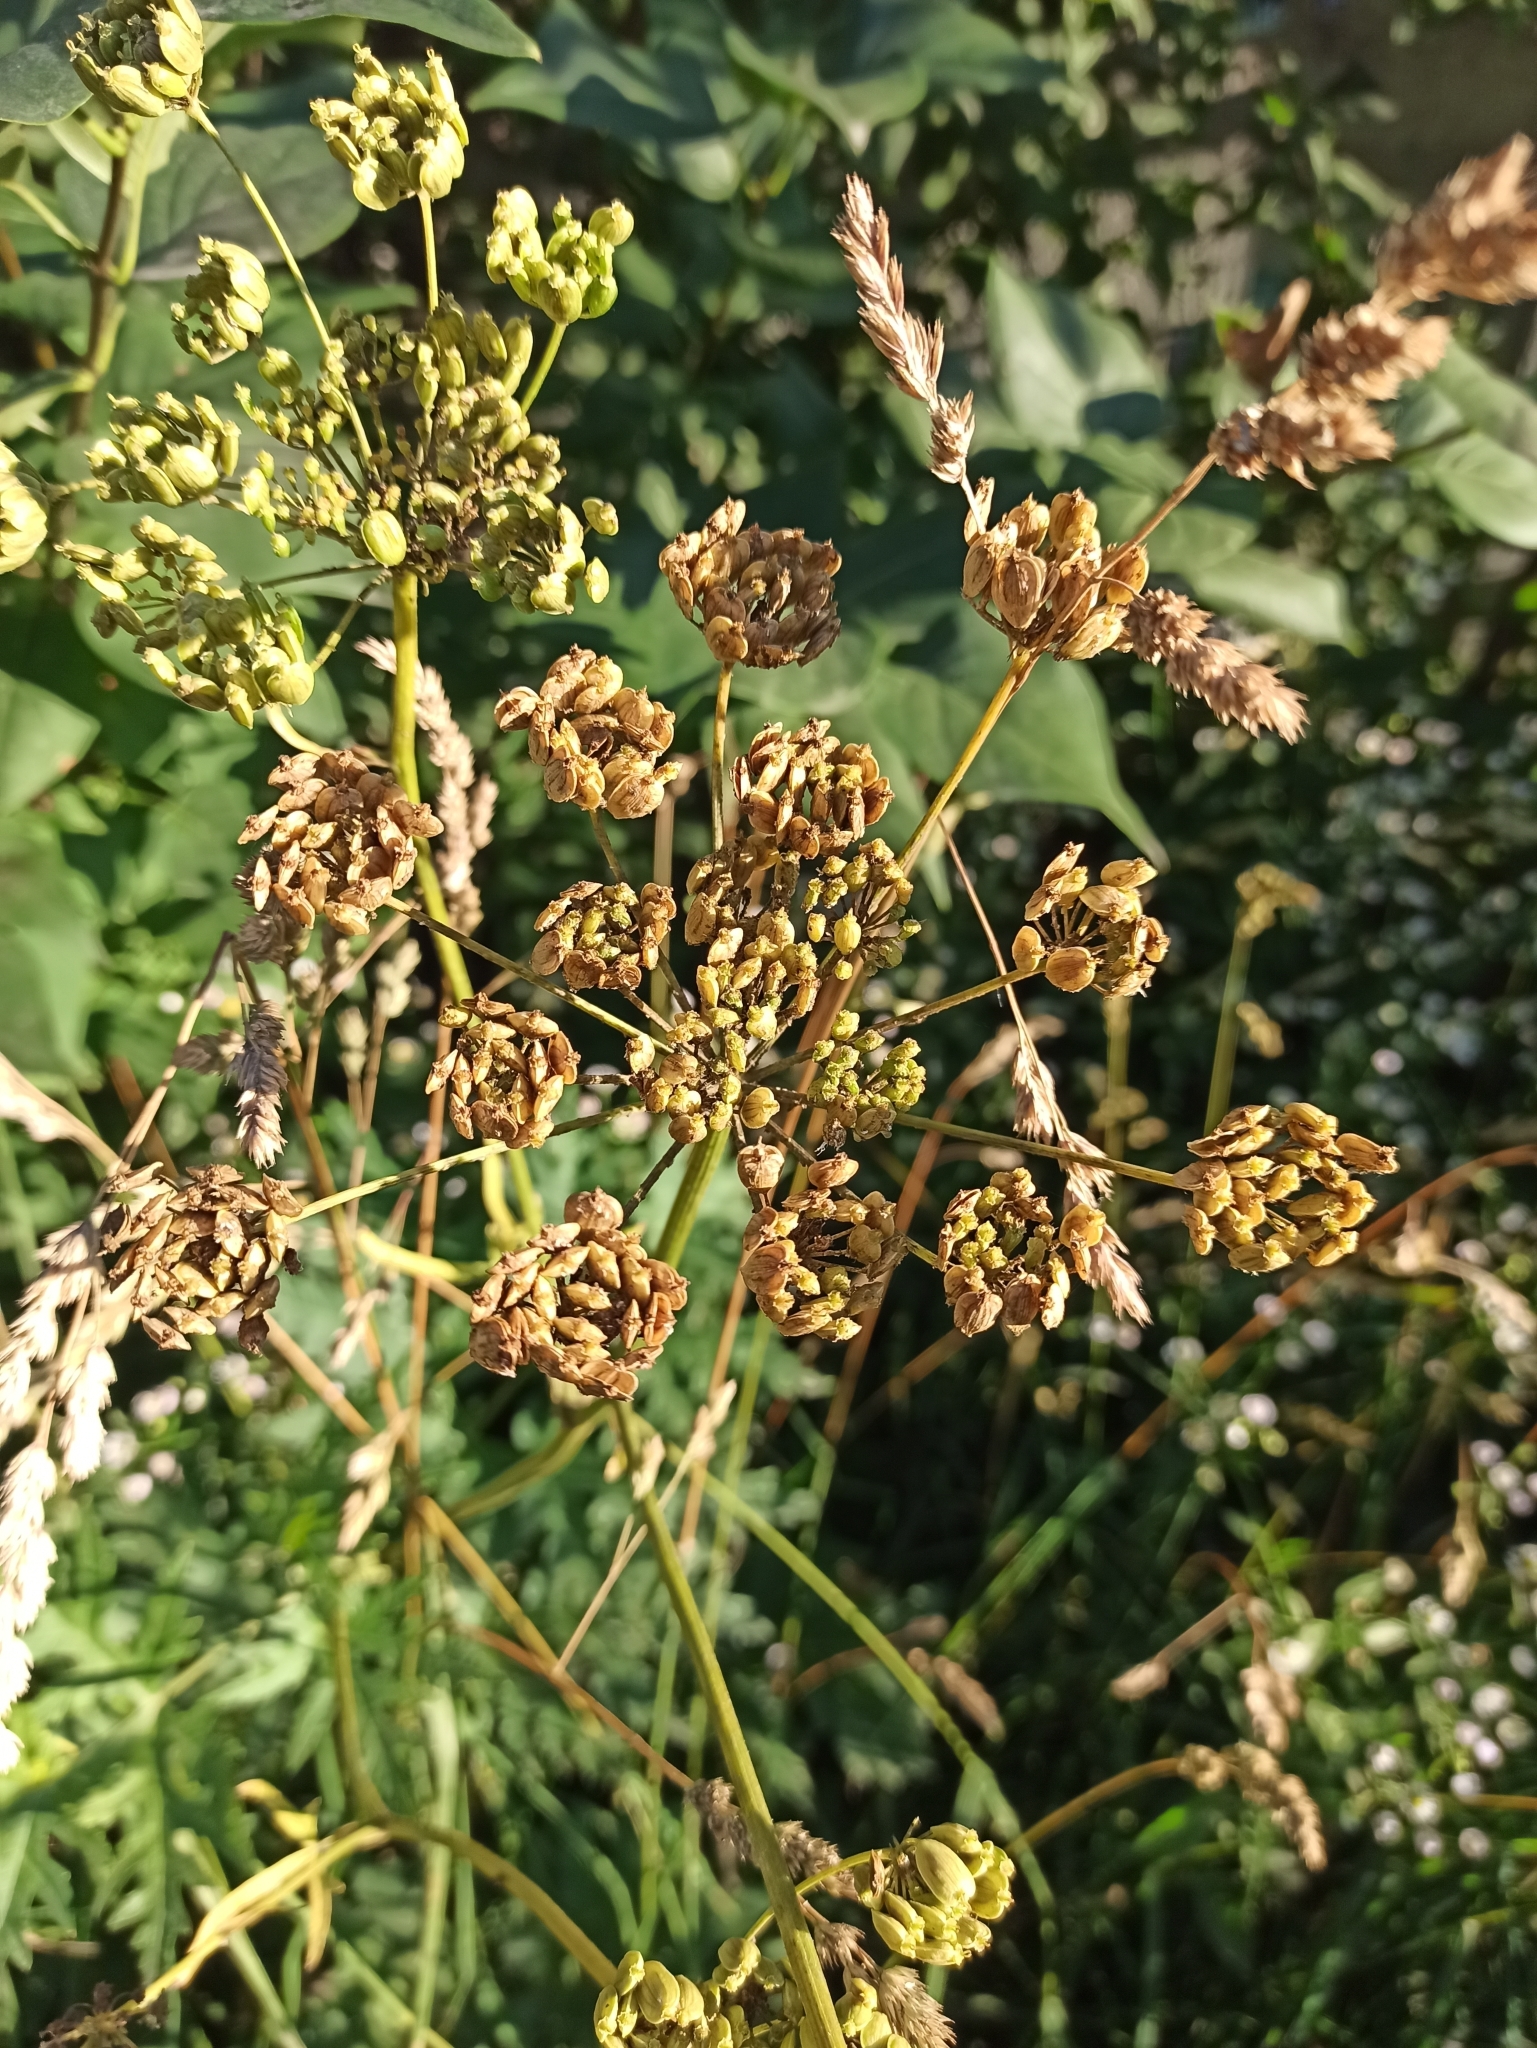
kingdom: Plantae
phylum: Tracheophyta
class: Magnoliopsida
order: Apiales
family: Apiaceae
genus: Seseli
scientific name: Seseli libanotis
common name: Mooncarrot
